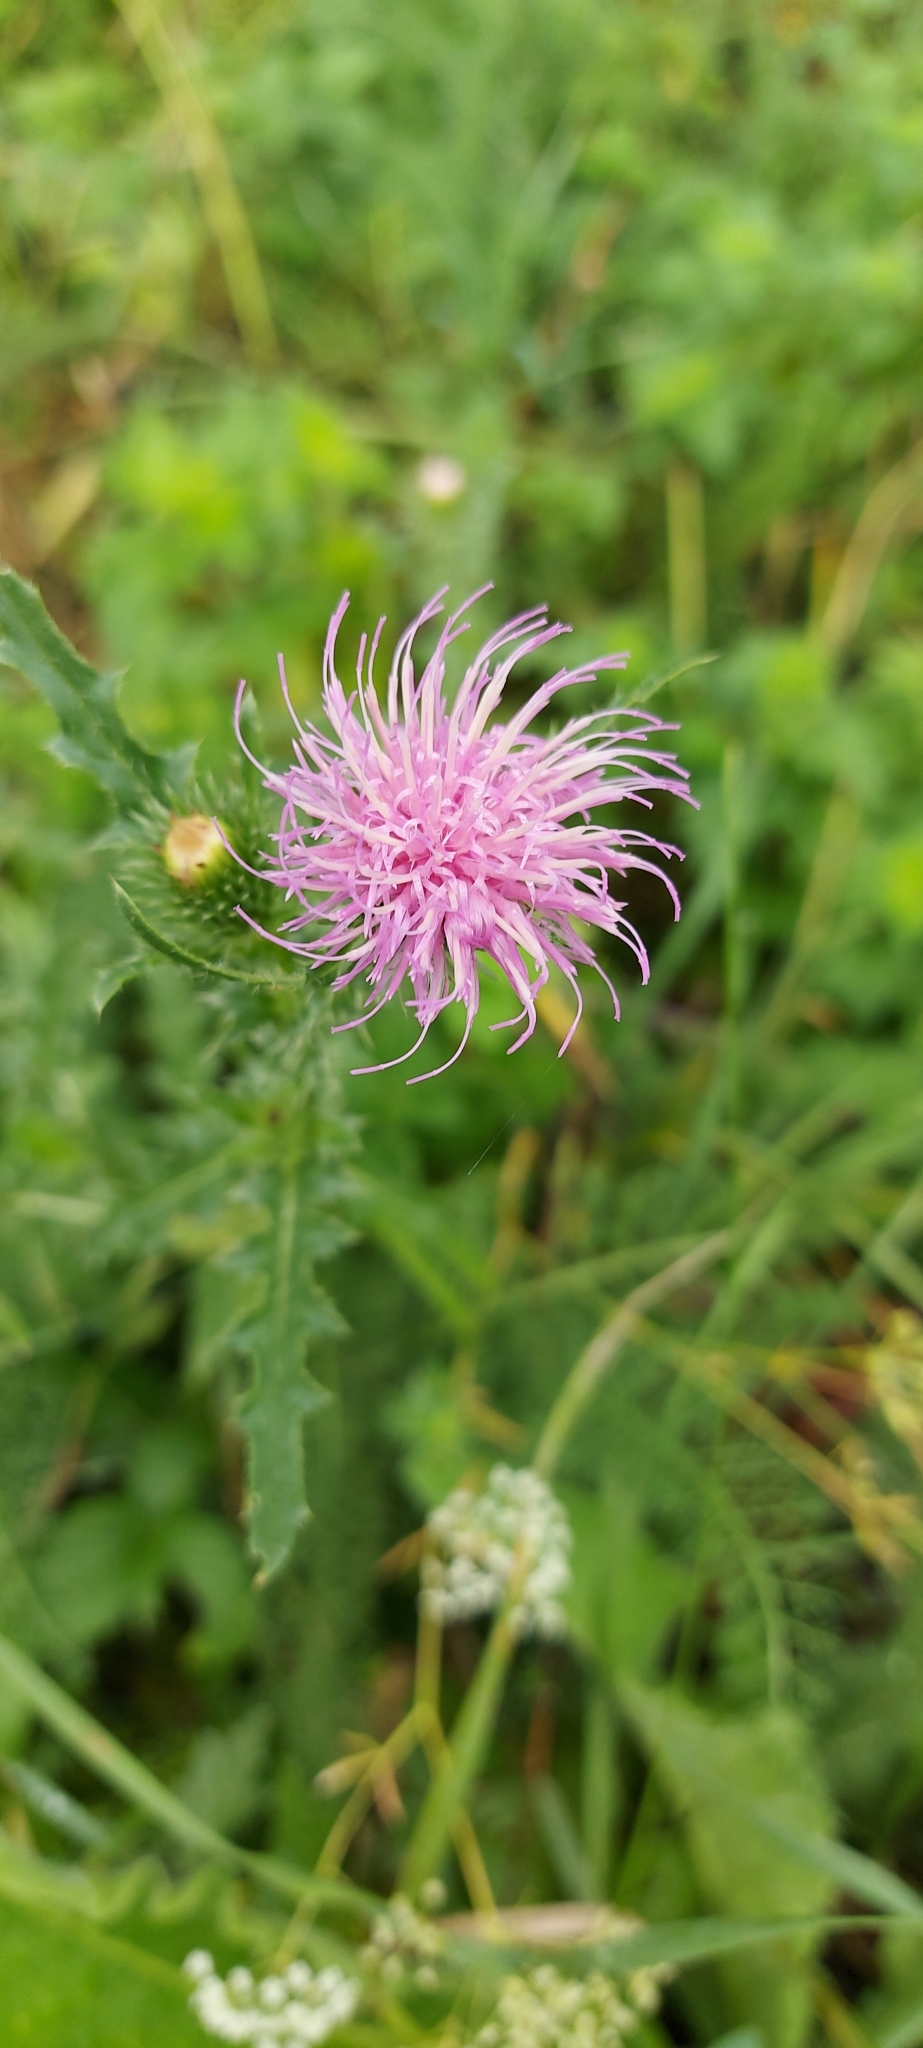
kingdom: Plantae
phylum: Tracheophyta
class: Magnoliopsida
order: Asterales
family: Asteraceae
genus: Carduus
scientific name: Carduus acanthoides
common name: Plumeless thistle
